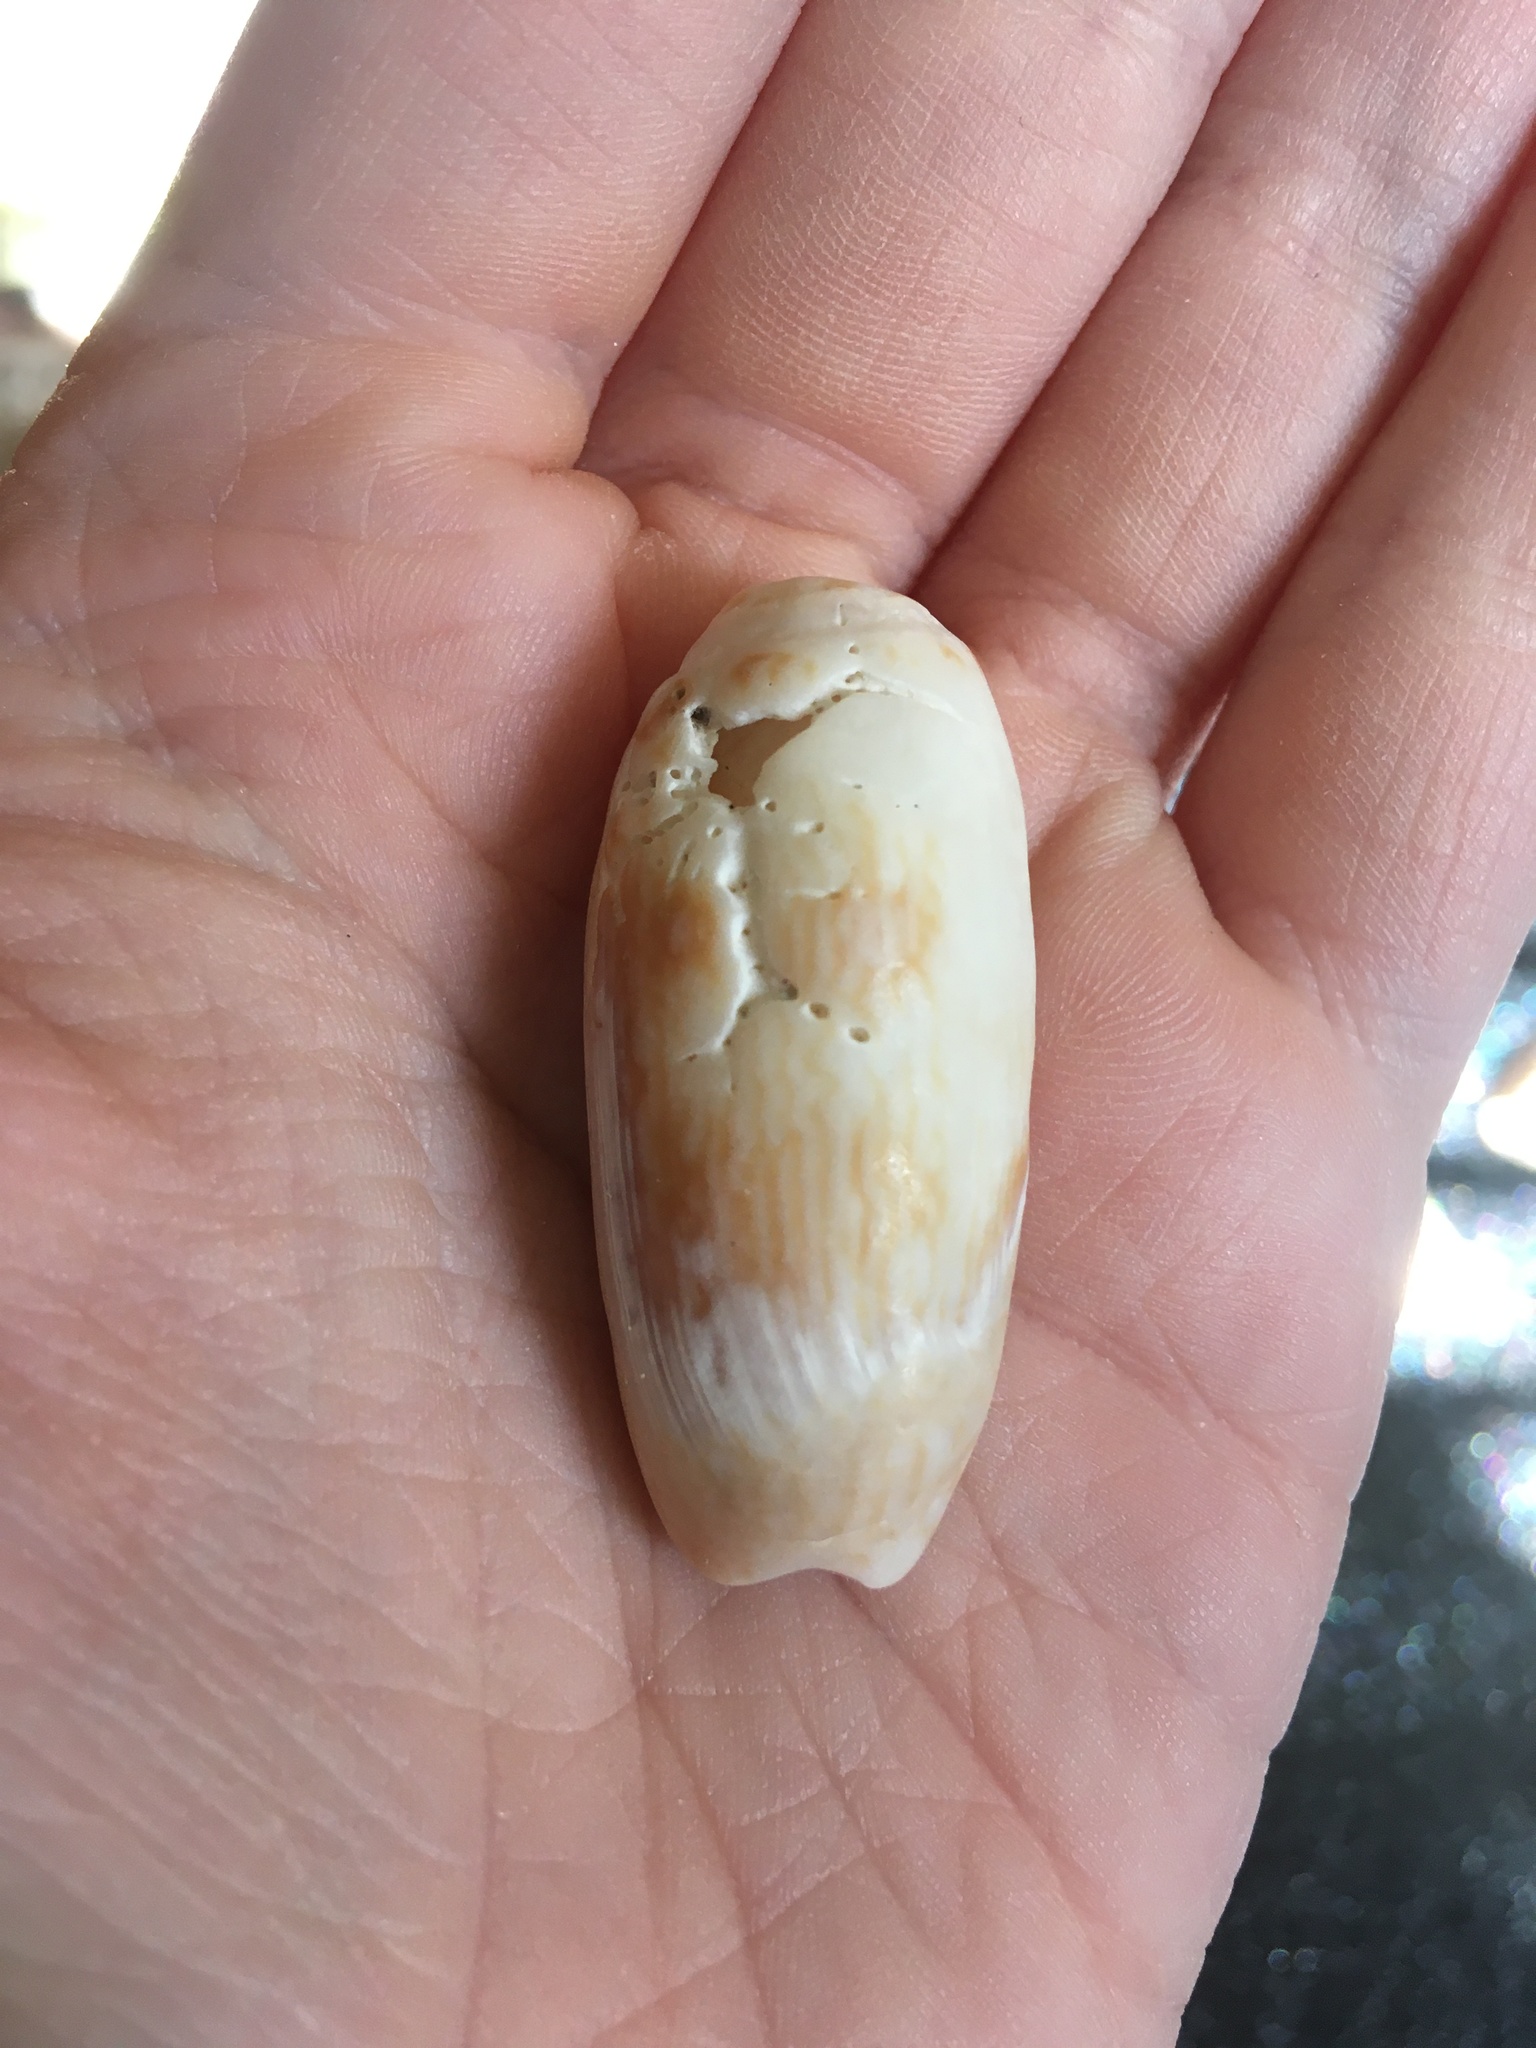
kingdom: Animalia
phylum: Mollusca
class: Gastropoda
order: Neogastropoda
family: Olividae
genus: Oliva
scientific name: Oliva sayana
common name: Lettered olive
